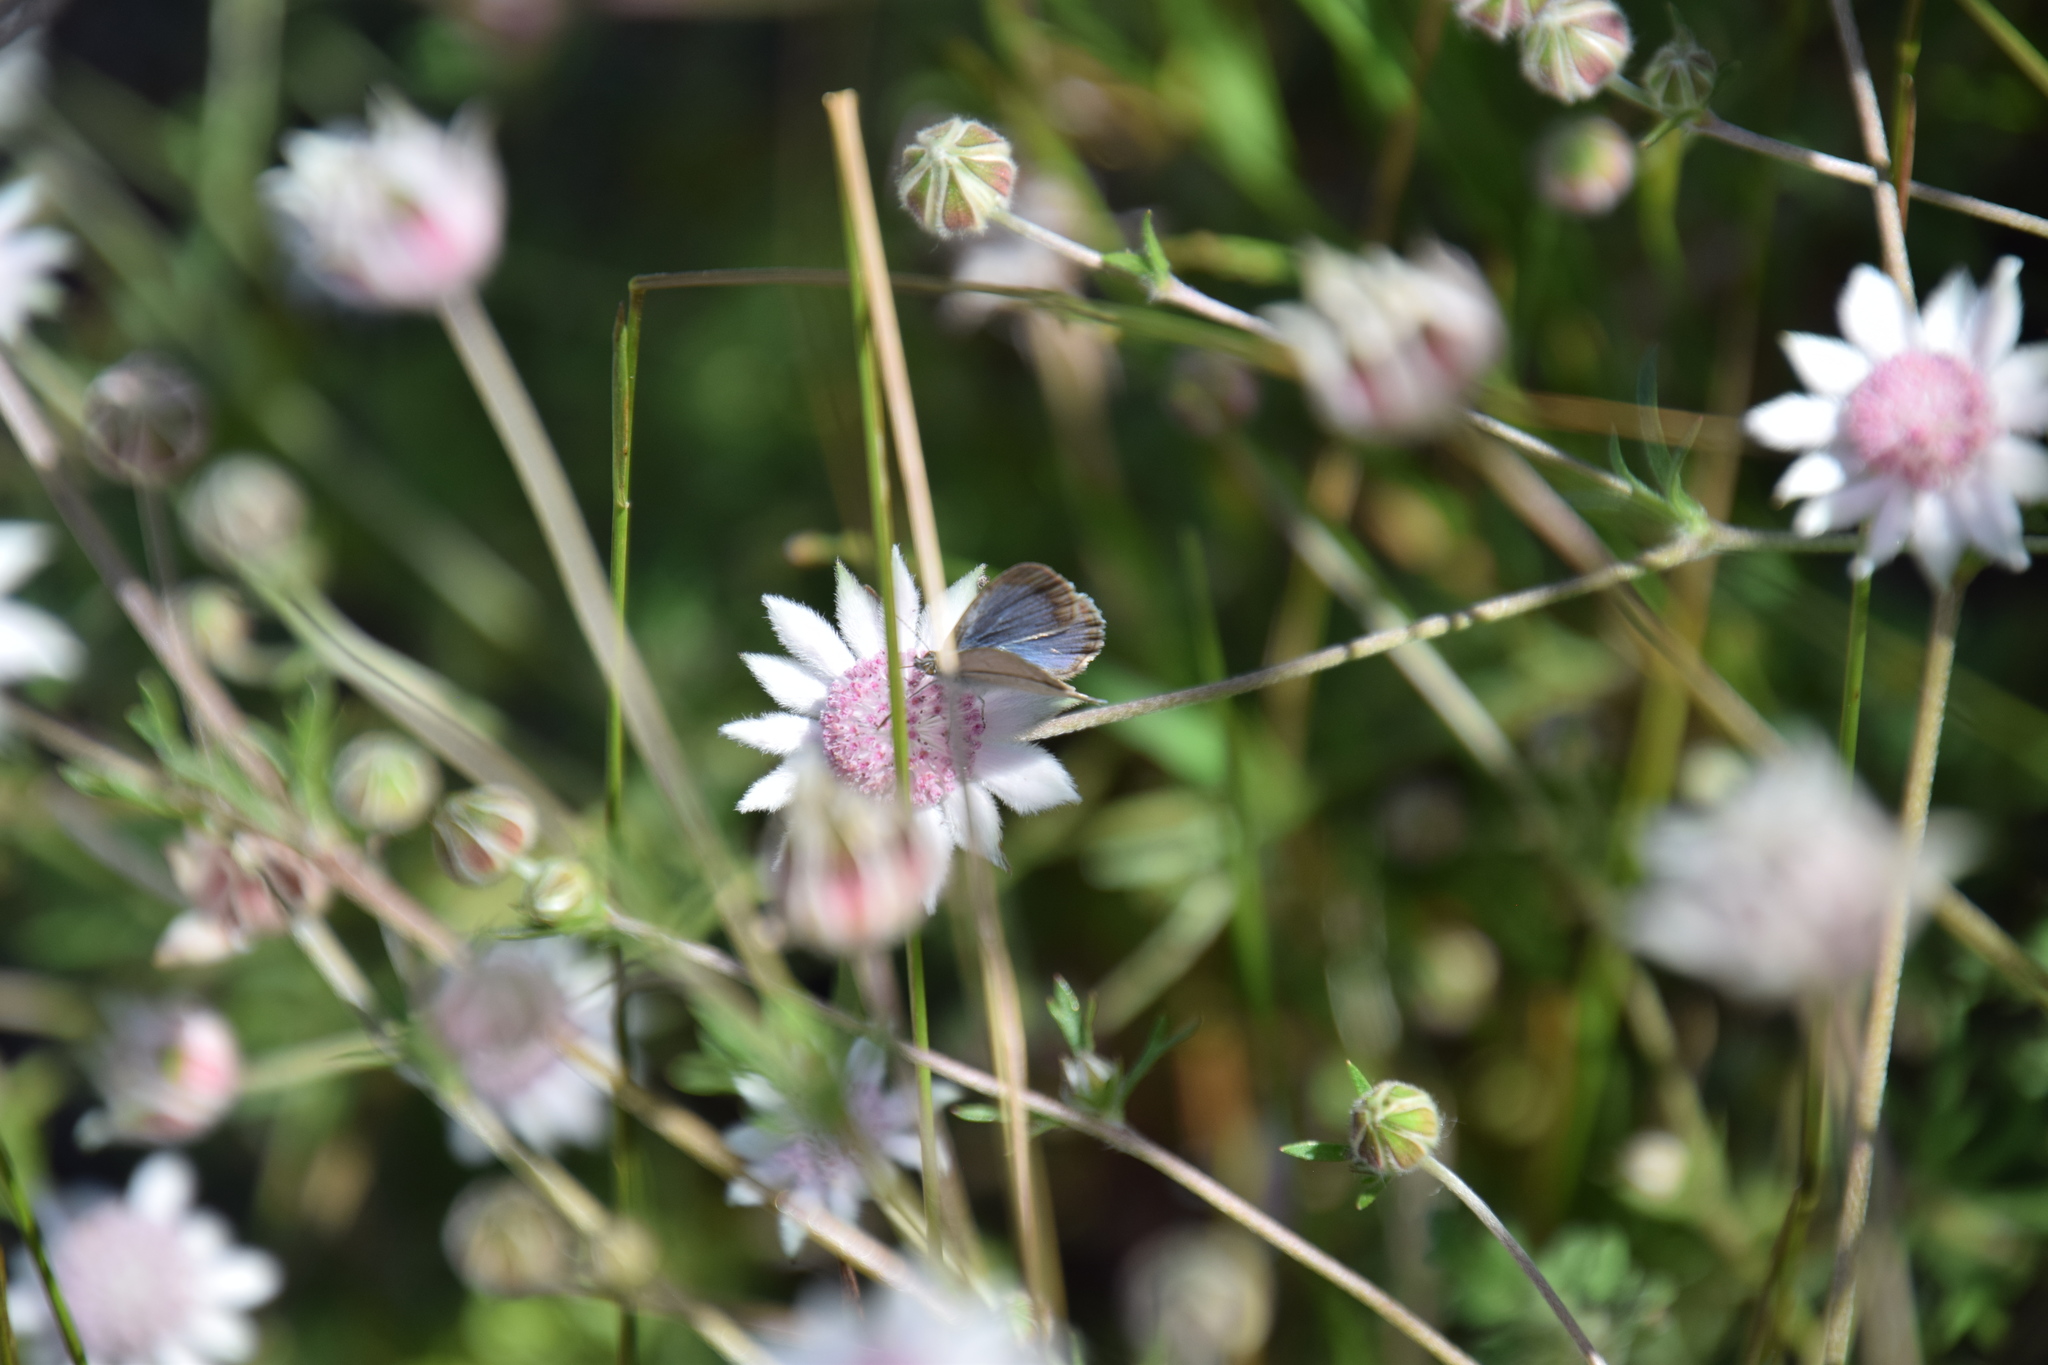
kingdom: Animalia
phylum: Arthropoda
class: Insecta
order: Lepidoptera
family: Lycaenidae
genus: Zizina
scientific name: Zizina labradus
